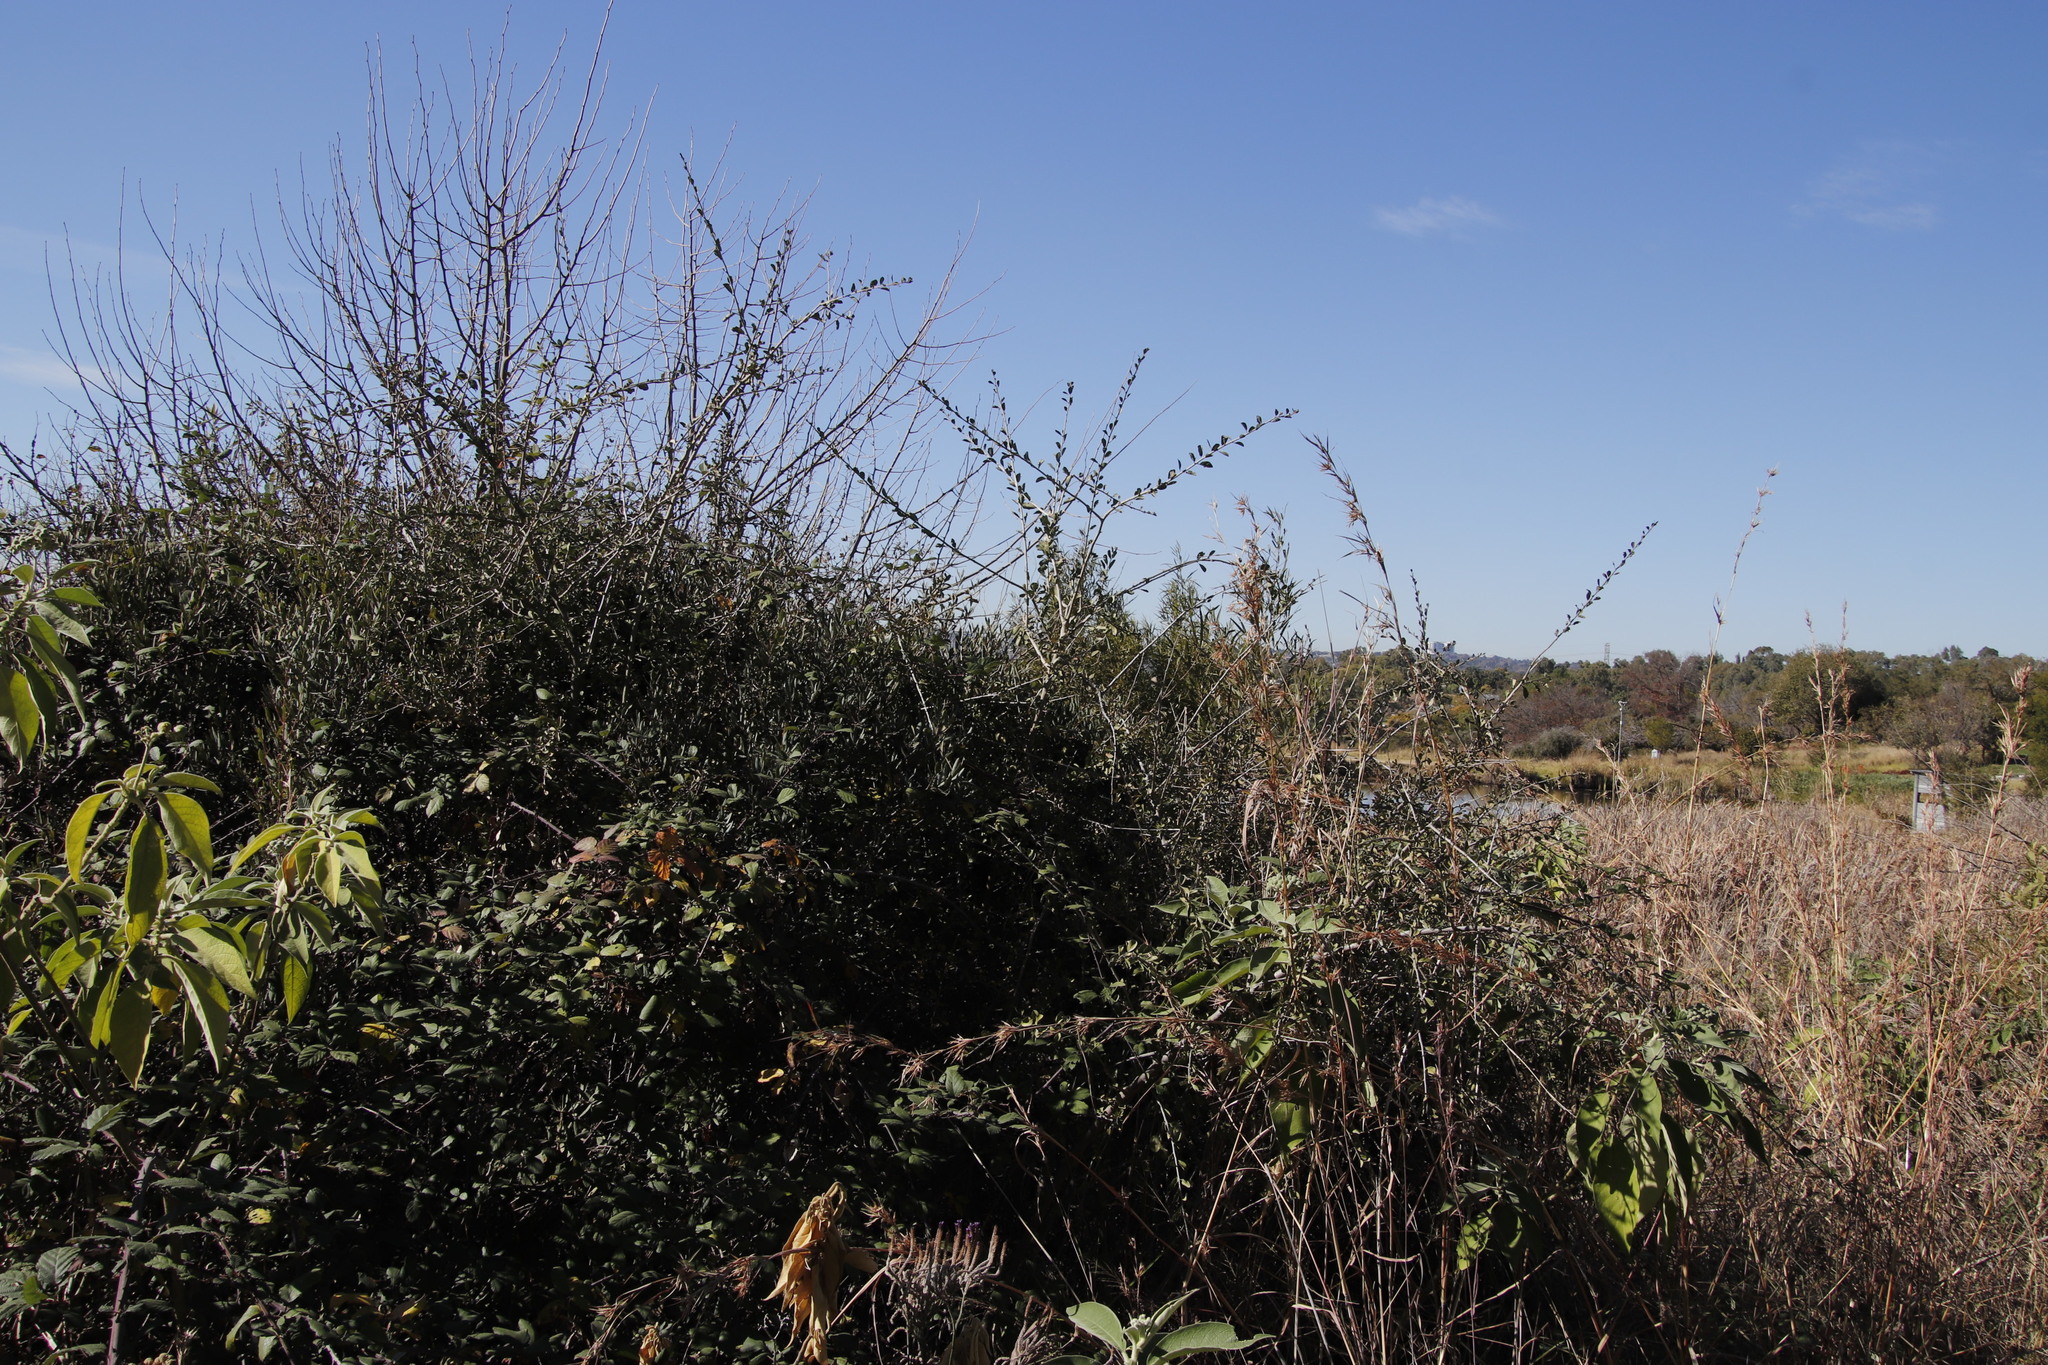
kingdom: Plantae
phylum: Tracheophyta
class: Magnoliopsida
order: Boraginales
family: Ehretiaceae
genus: Ehretia
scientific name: Ehretia rigida
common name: Cape lilac
